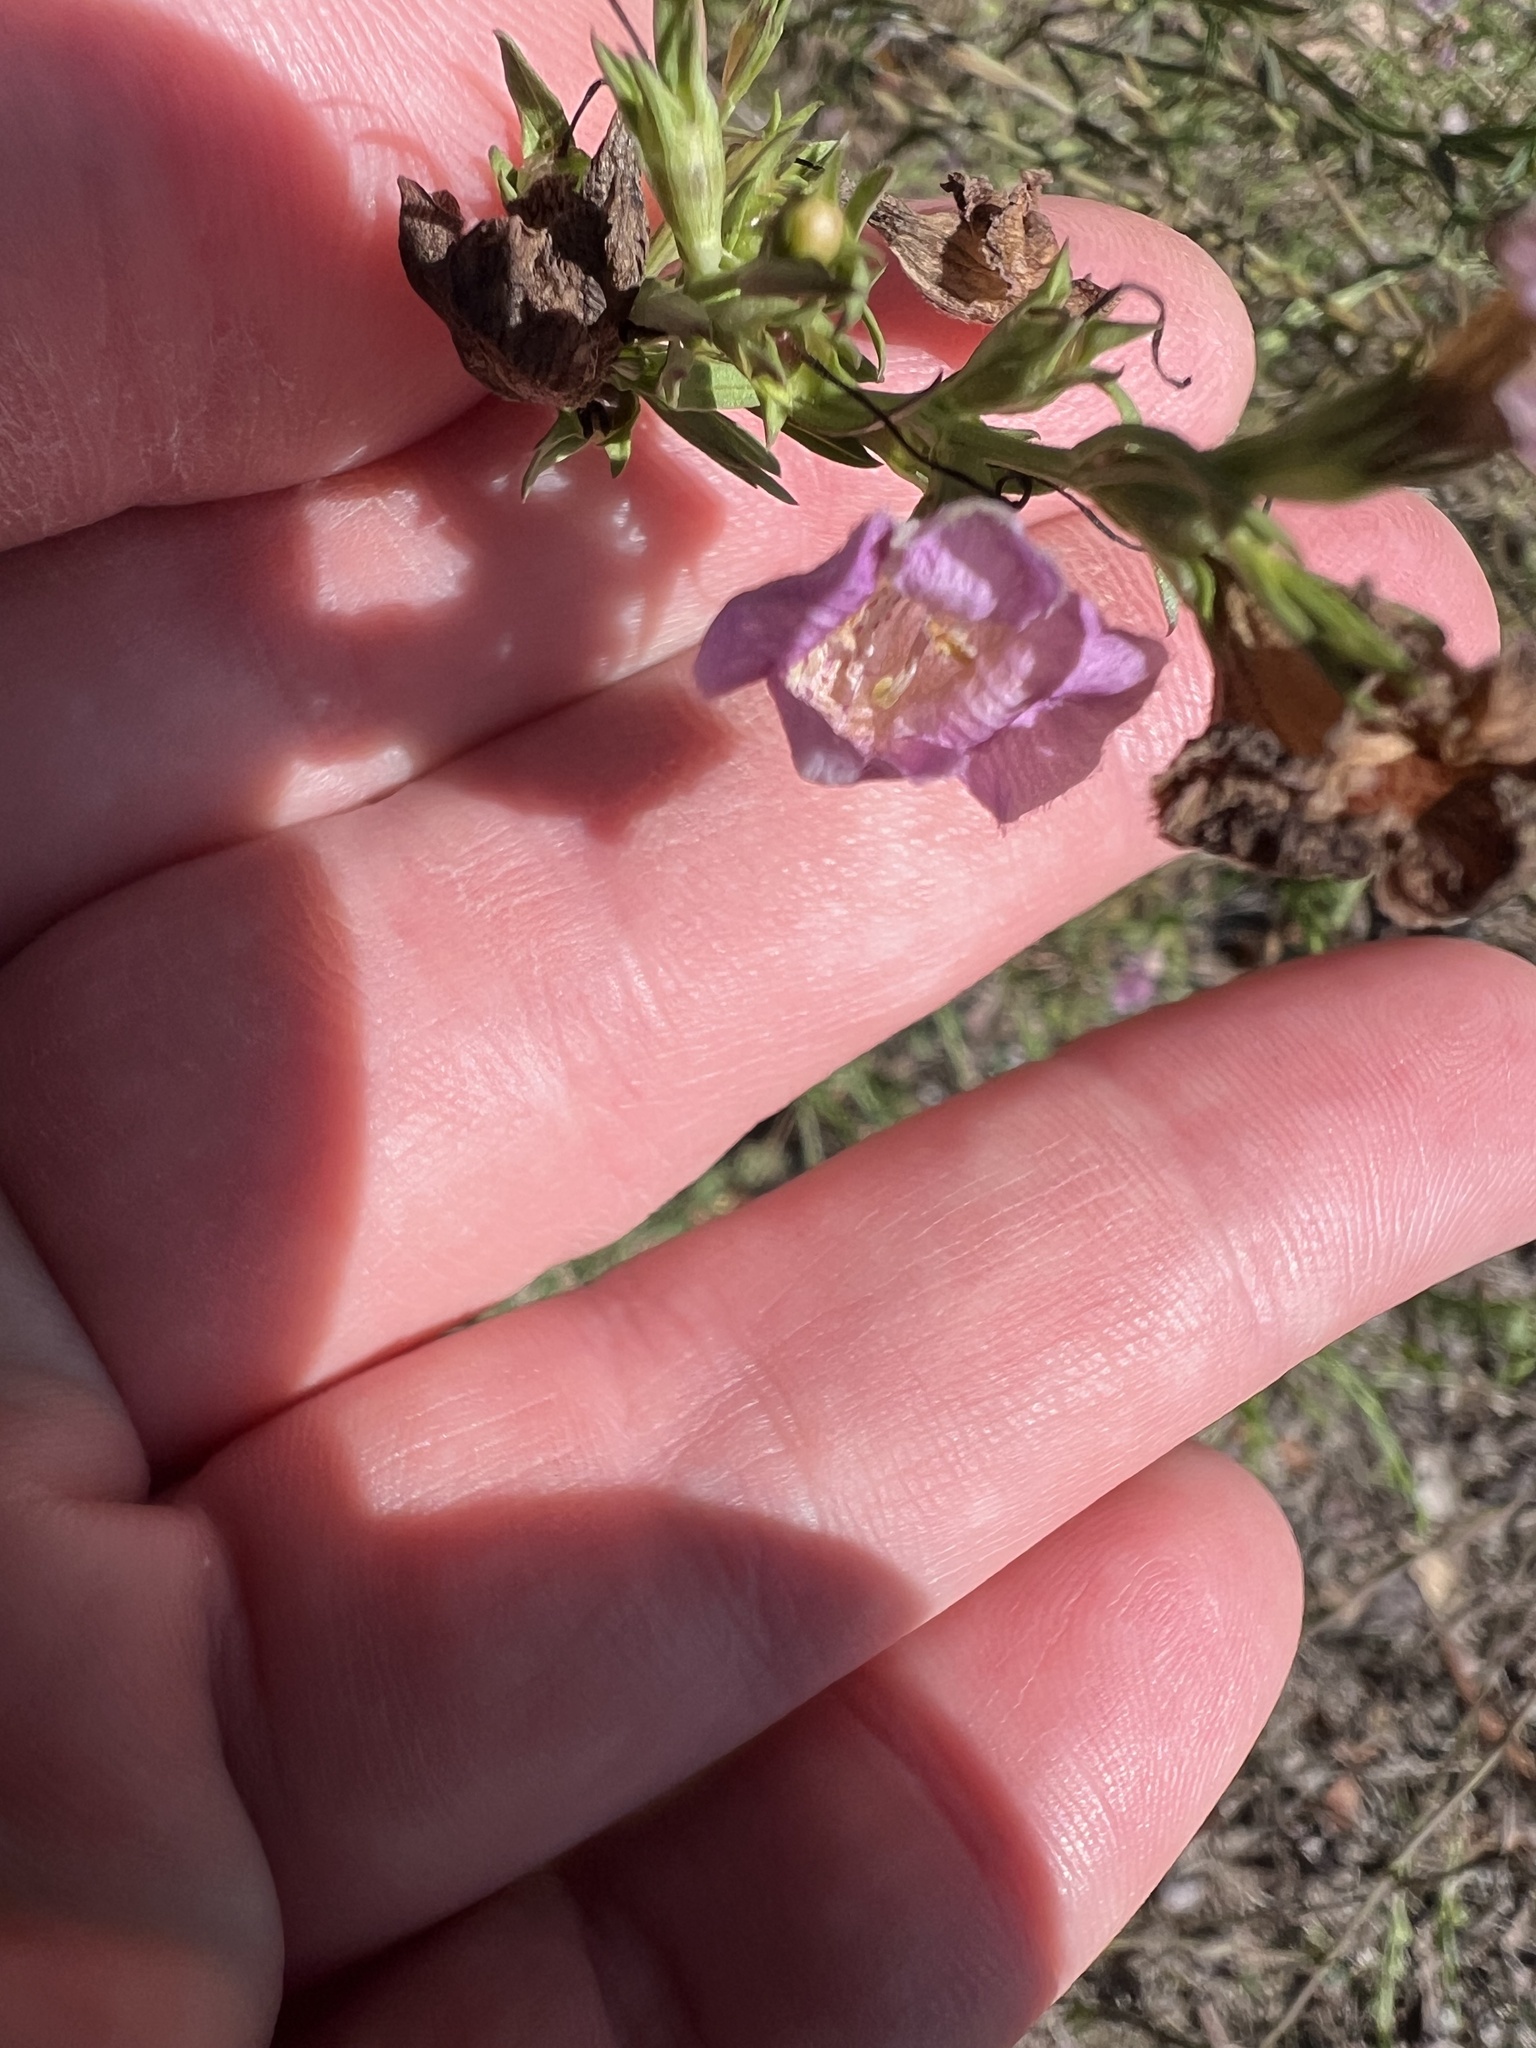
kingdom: Plantae
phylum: Tracheophyta
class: Magnoliopsida
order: Lamiales
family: Orobanchaceae
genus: Agalinis
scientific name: Agalinis heterophylla
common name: Prairie agalinis
